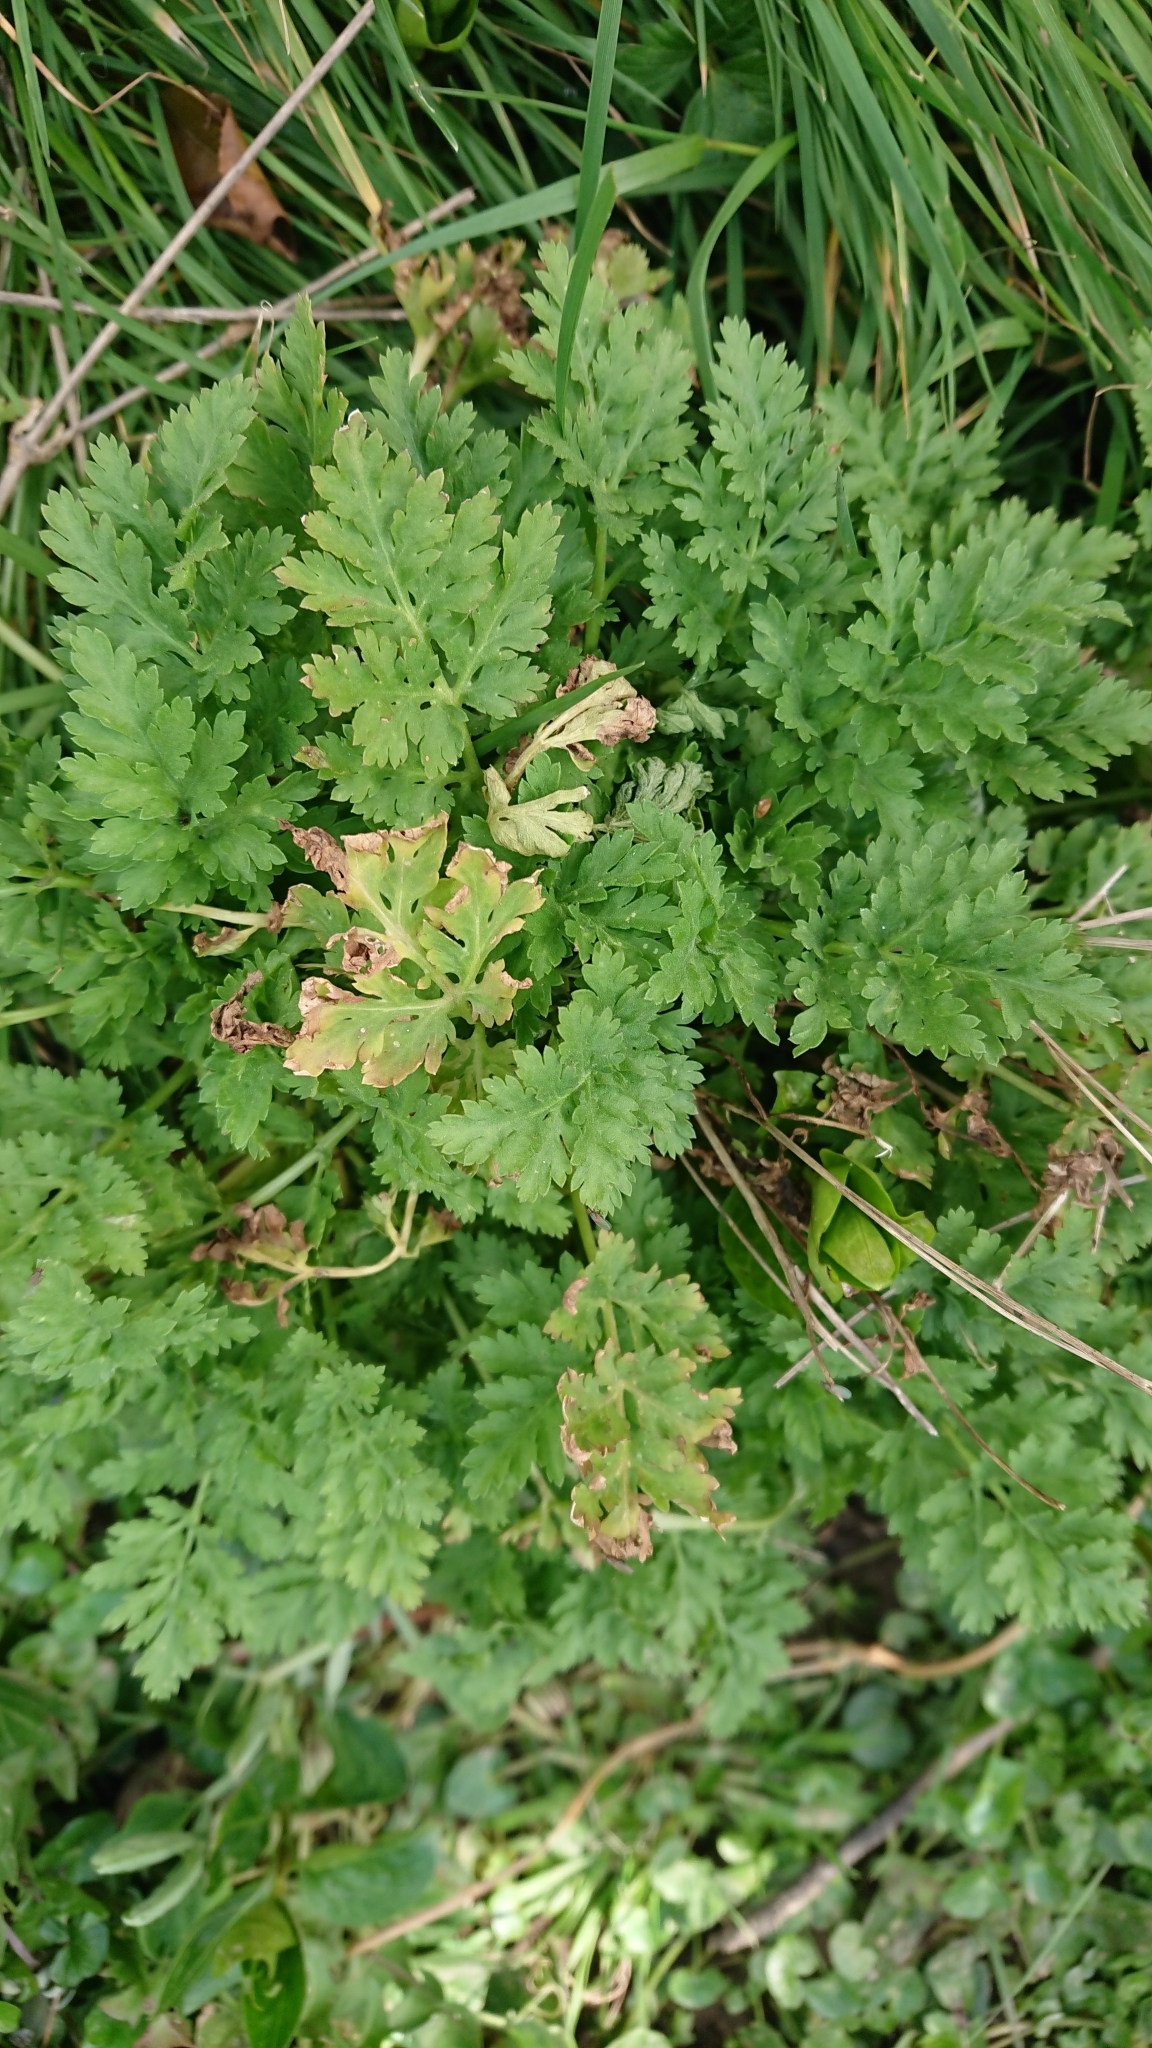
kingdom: Plantae
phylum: Tracheophyta
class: Magnoliopsida
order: Asterales
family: Asteraceae
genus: Tanacetum
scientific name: Tanacetum parthenium
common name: Feverfew
